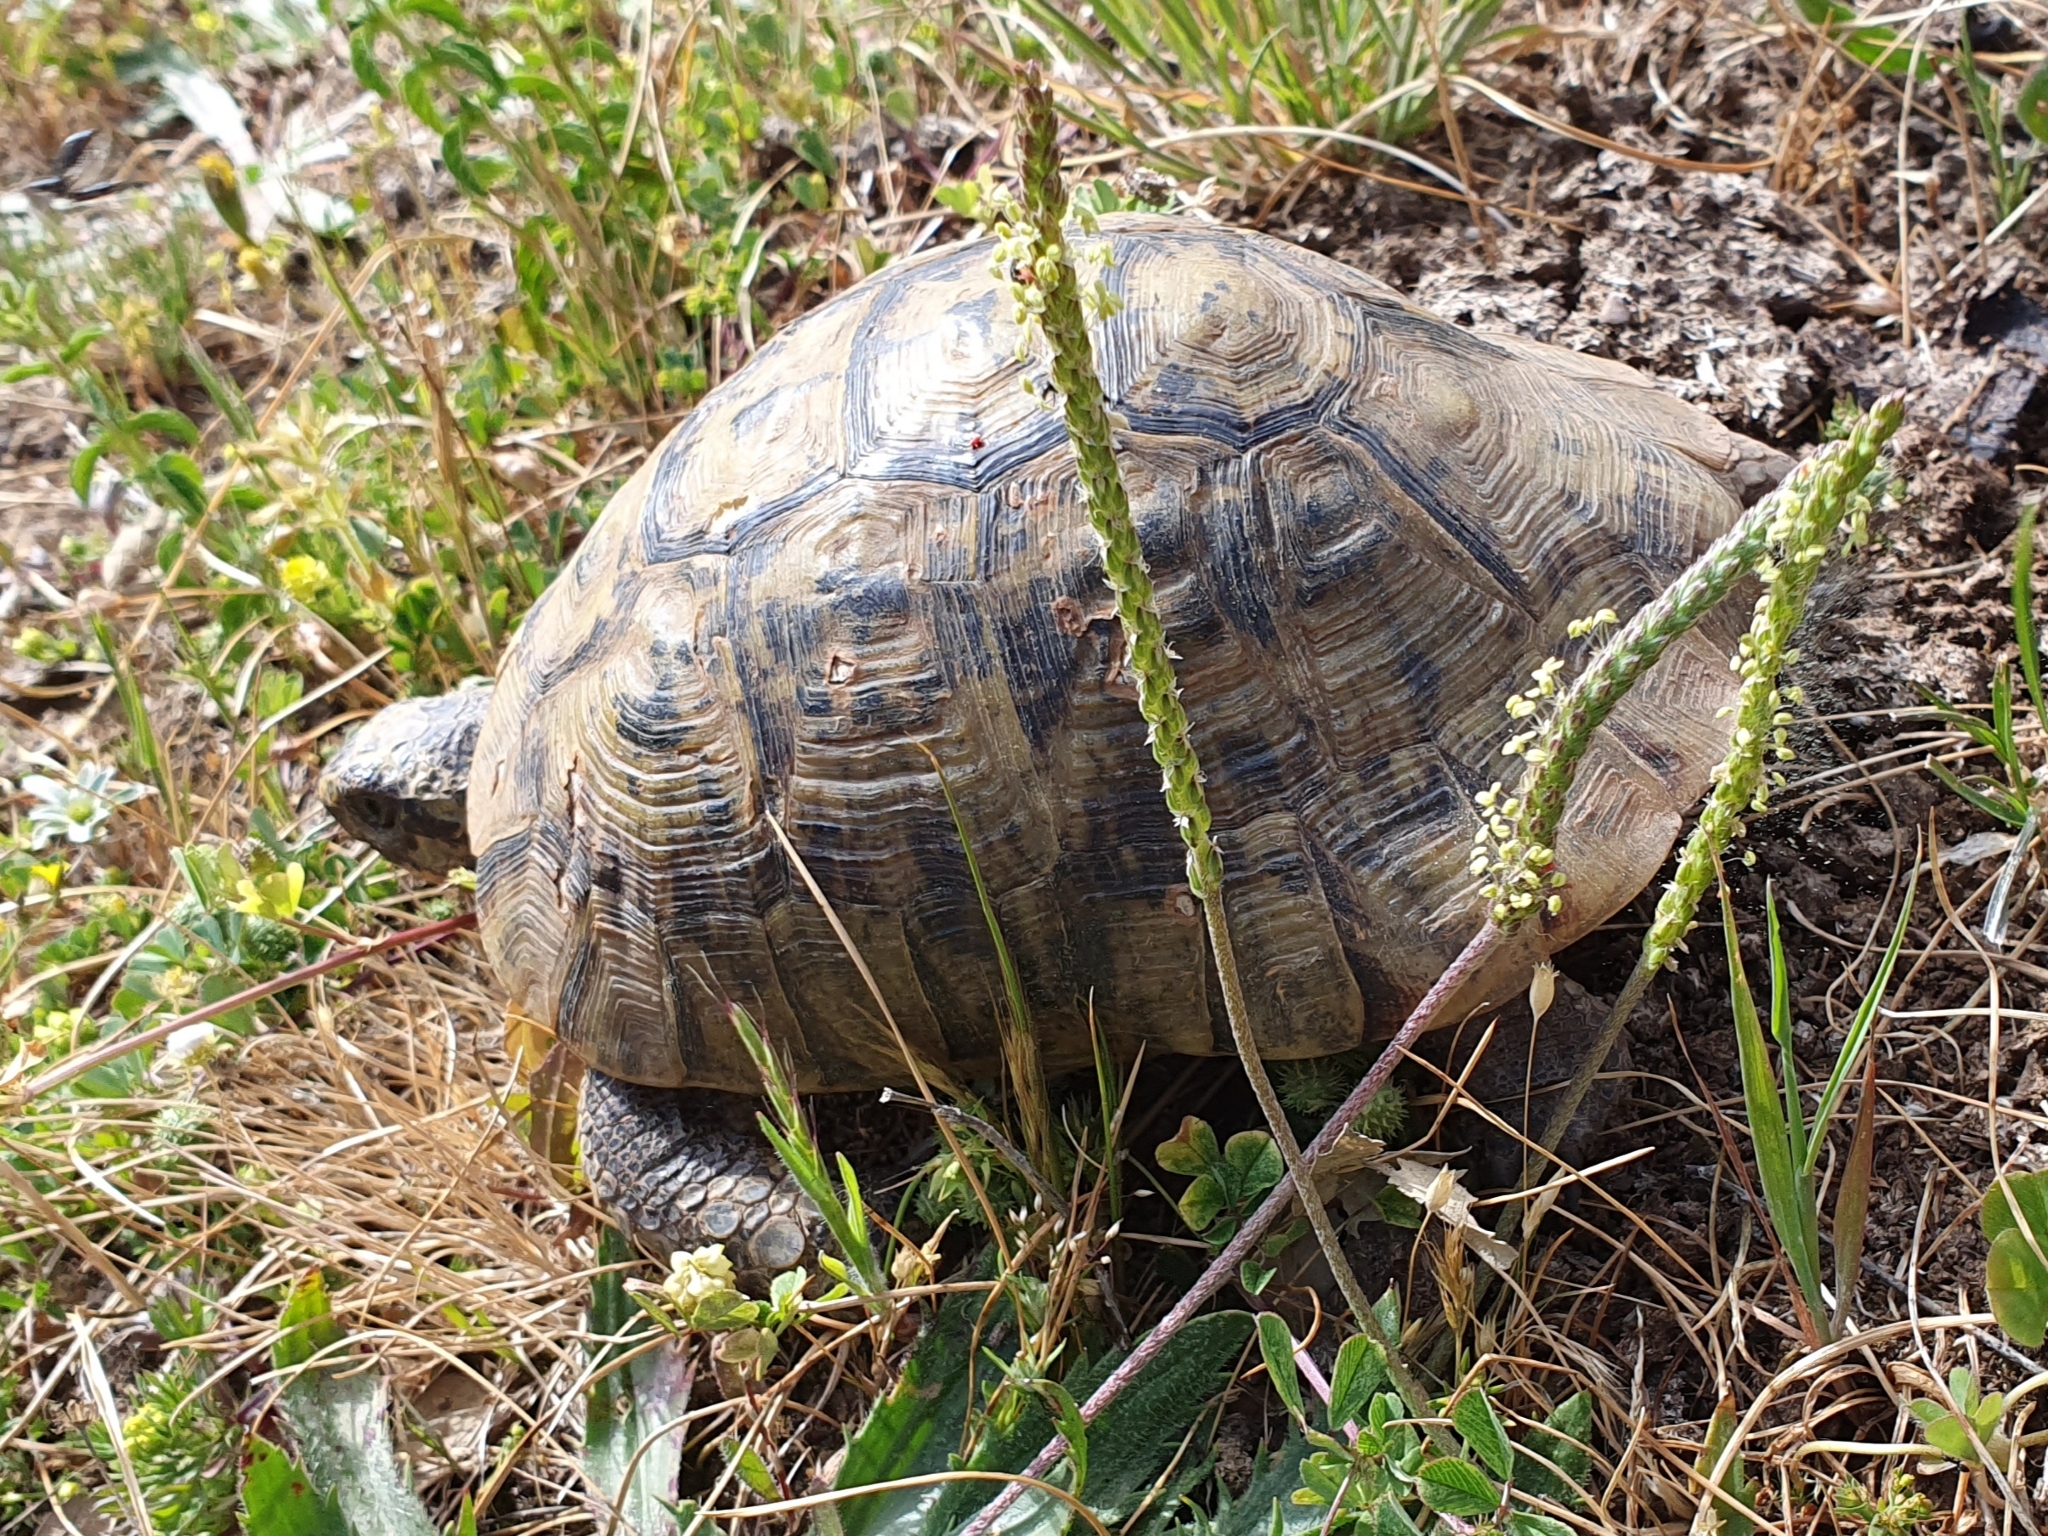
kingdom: Animalia
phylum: Chordata
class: Testudines
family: Testudinidae
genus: Testudo
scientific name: Testudo graeca
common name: Common tortoise
